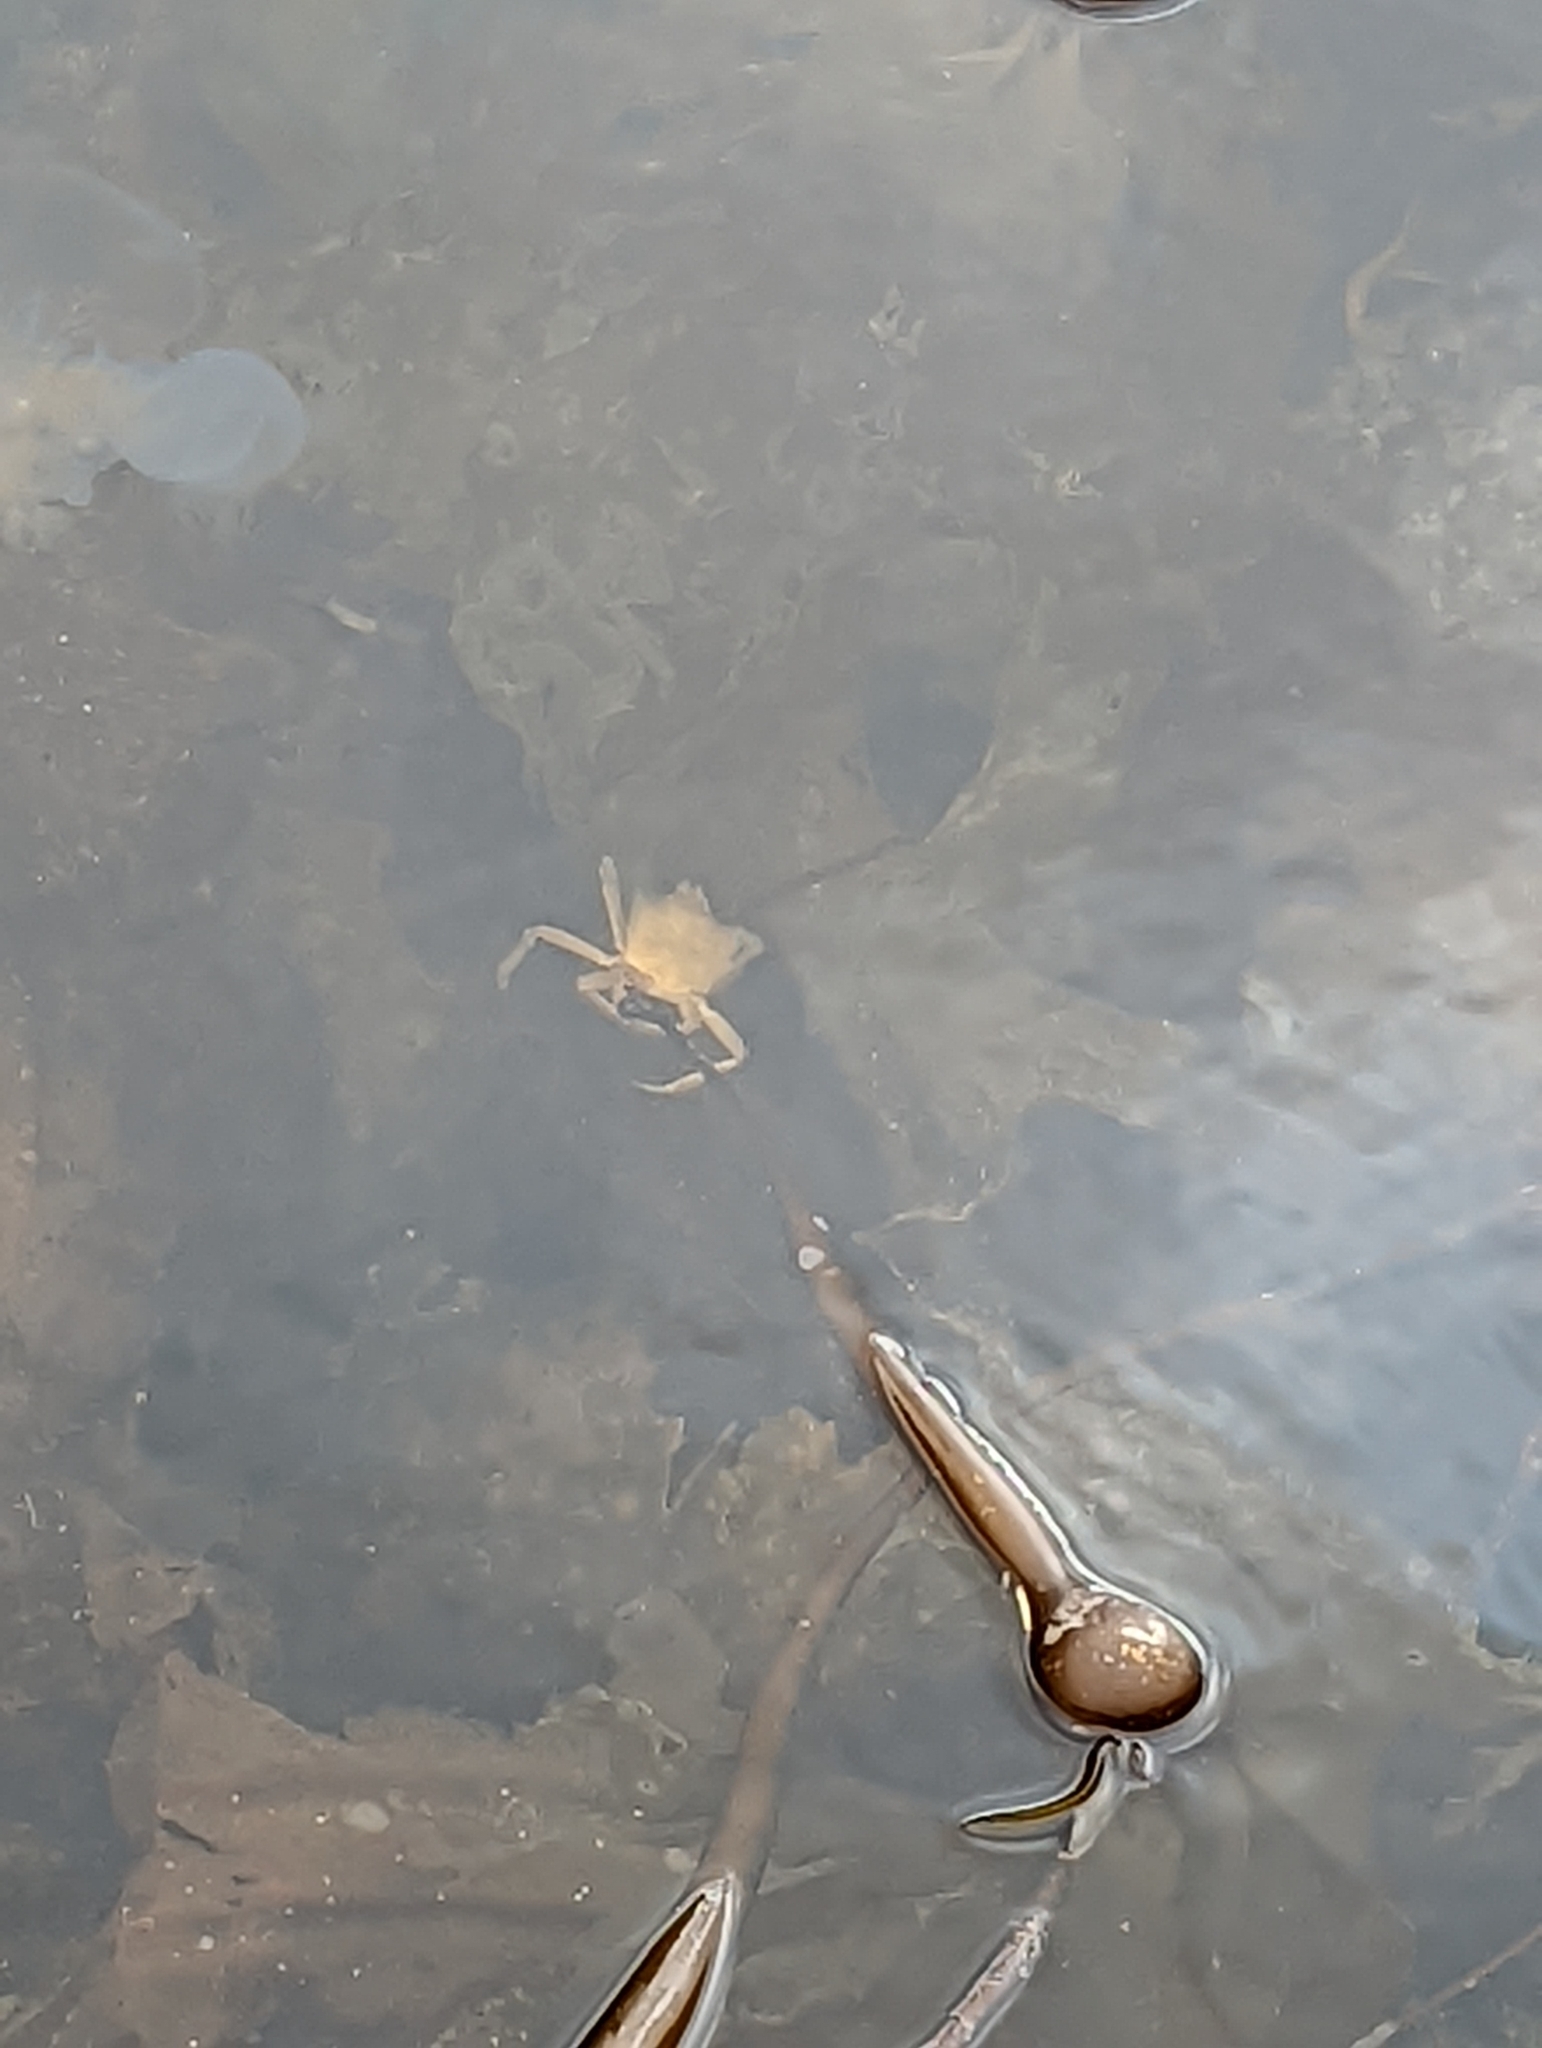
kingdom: Animalia
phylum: Arthropoda
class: Malacostraca
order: Decapoda
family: Epialtidae
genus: Pugettia
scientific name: Pugettia producta
